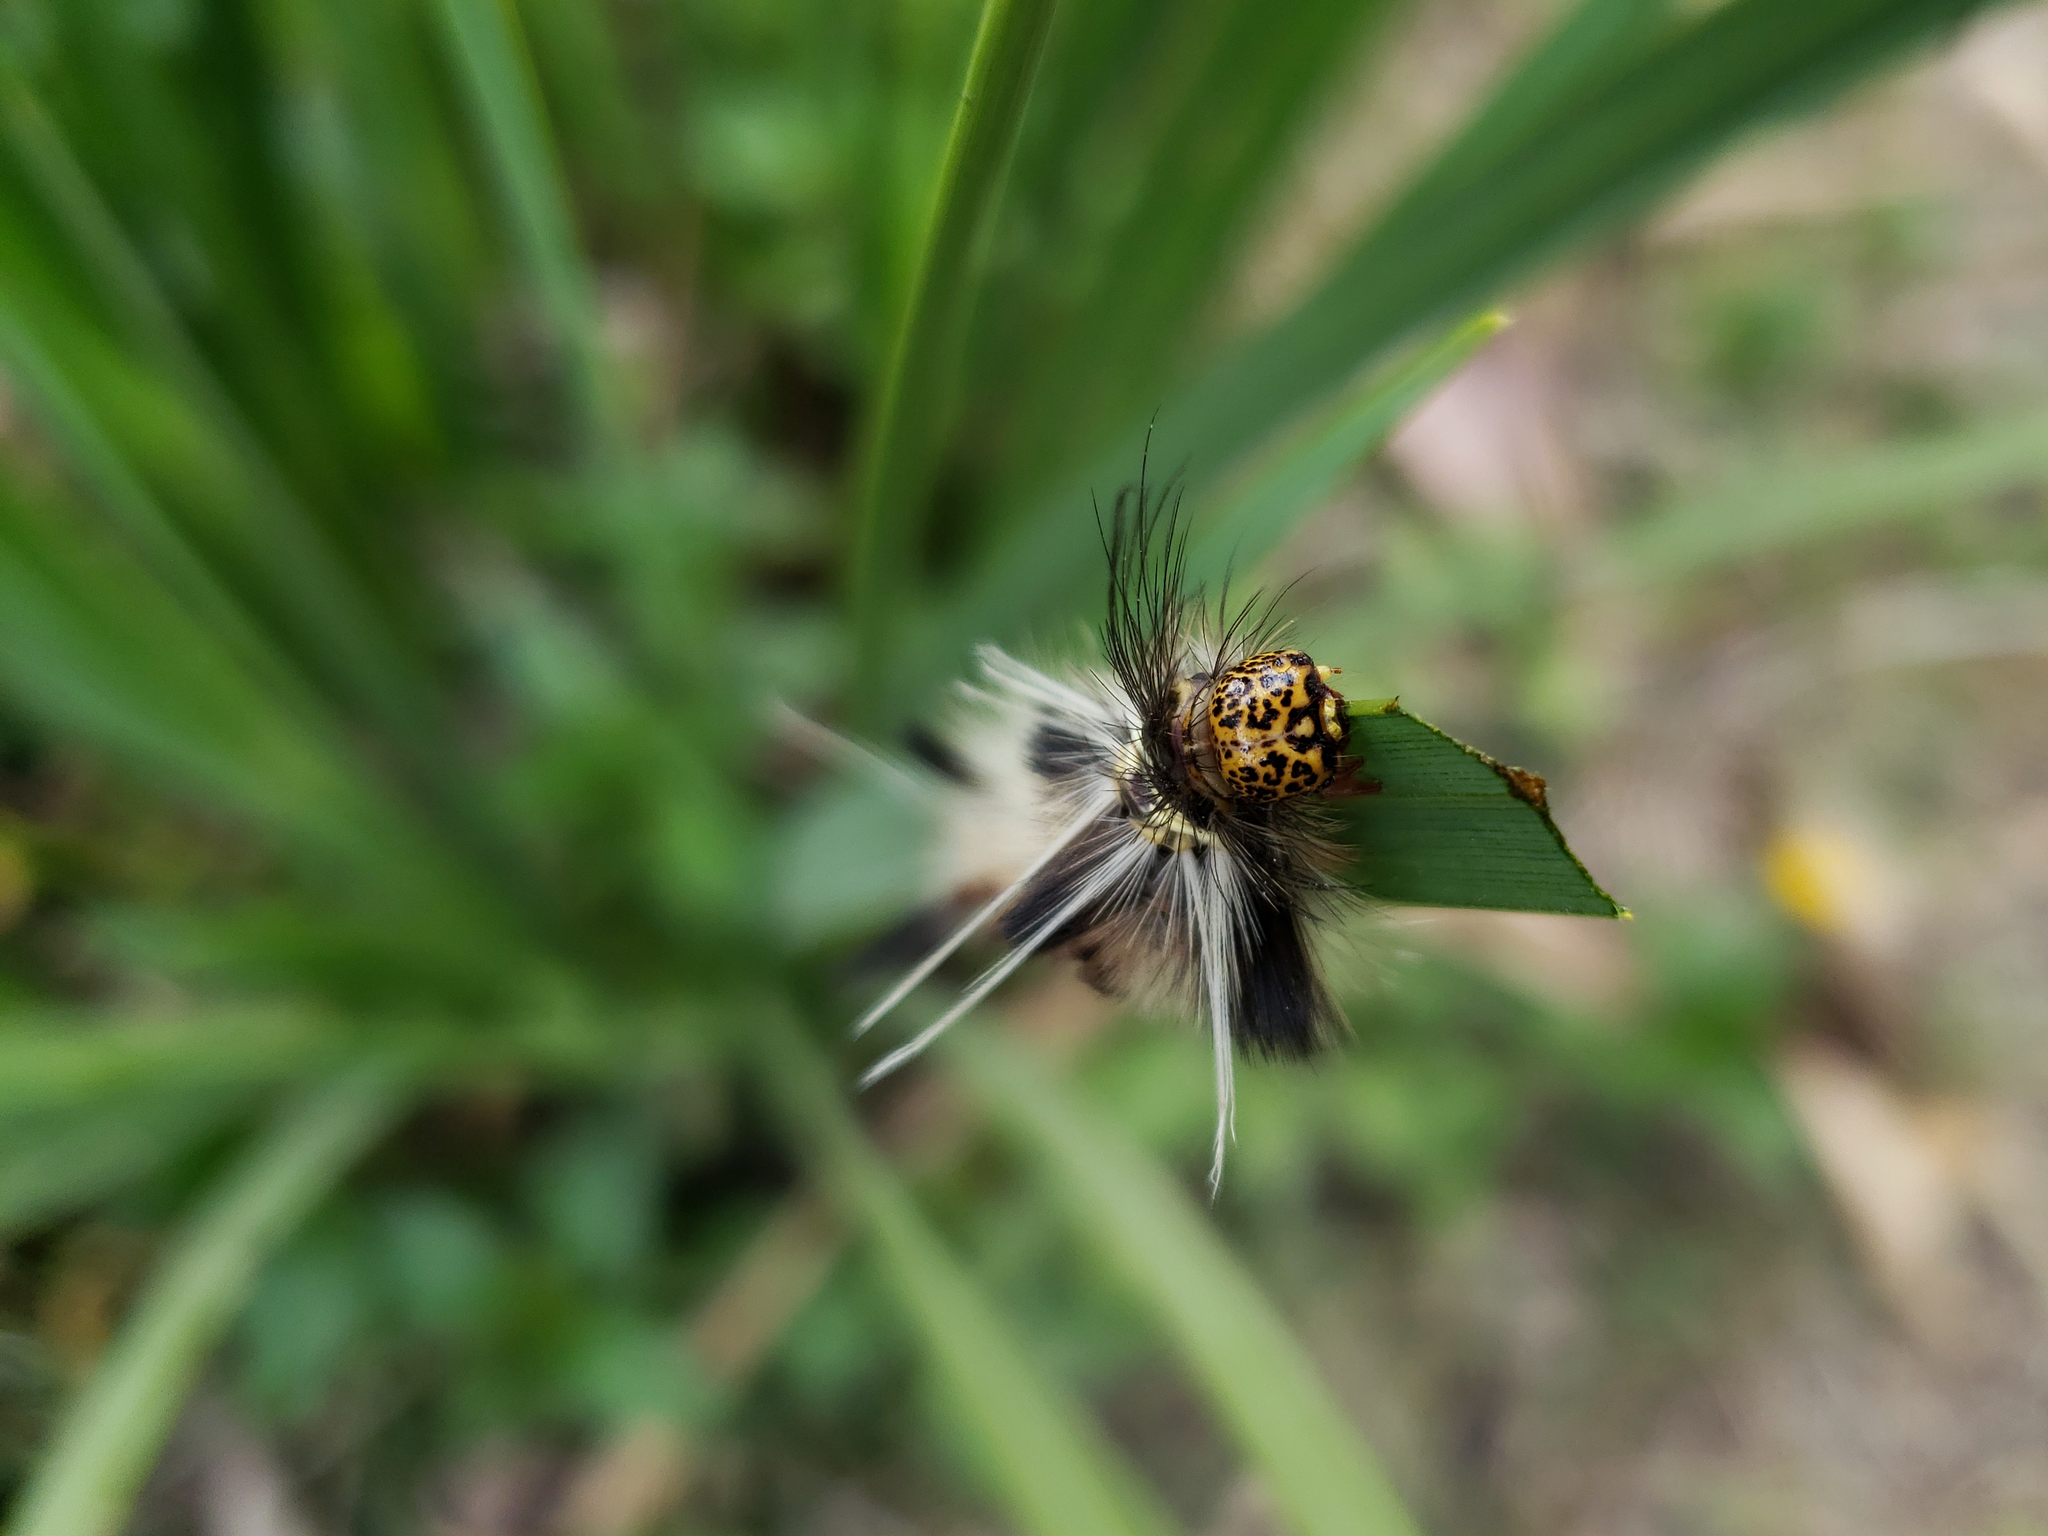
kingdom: Animalia
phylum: Arthropoda
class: Insecta
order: Lepidoptera
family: Erebidae
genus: Carales
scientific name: Carales astur
